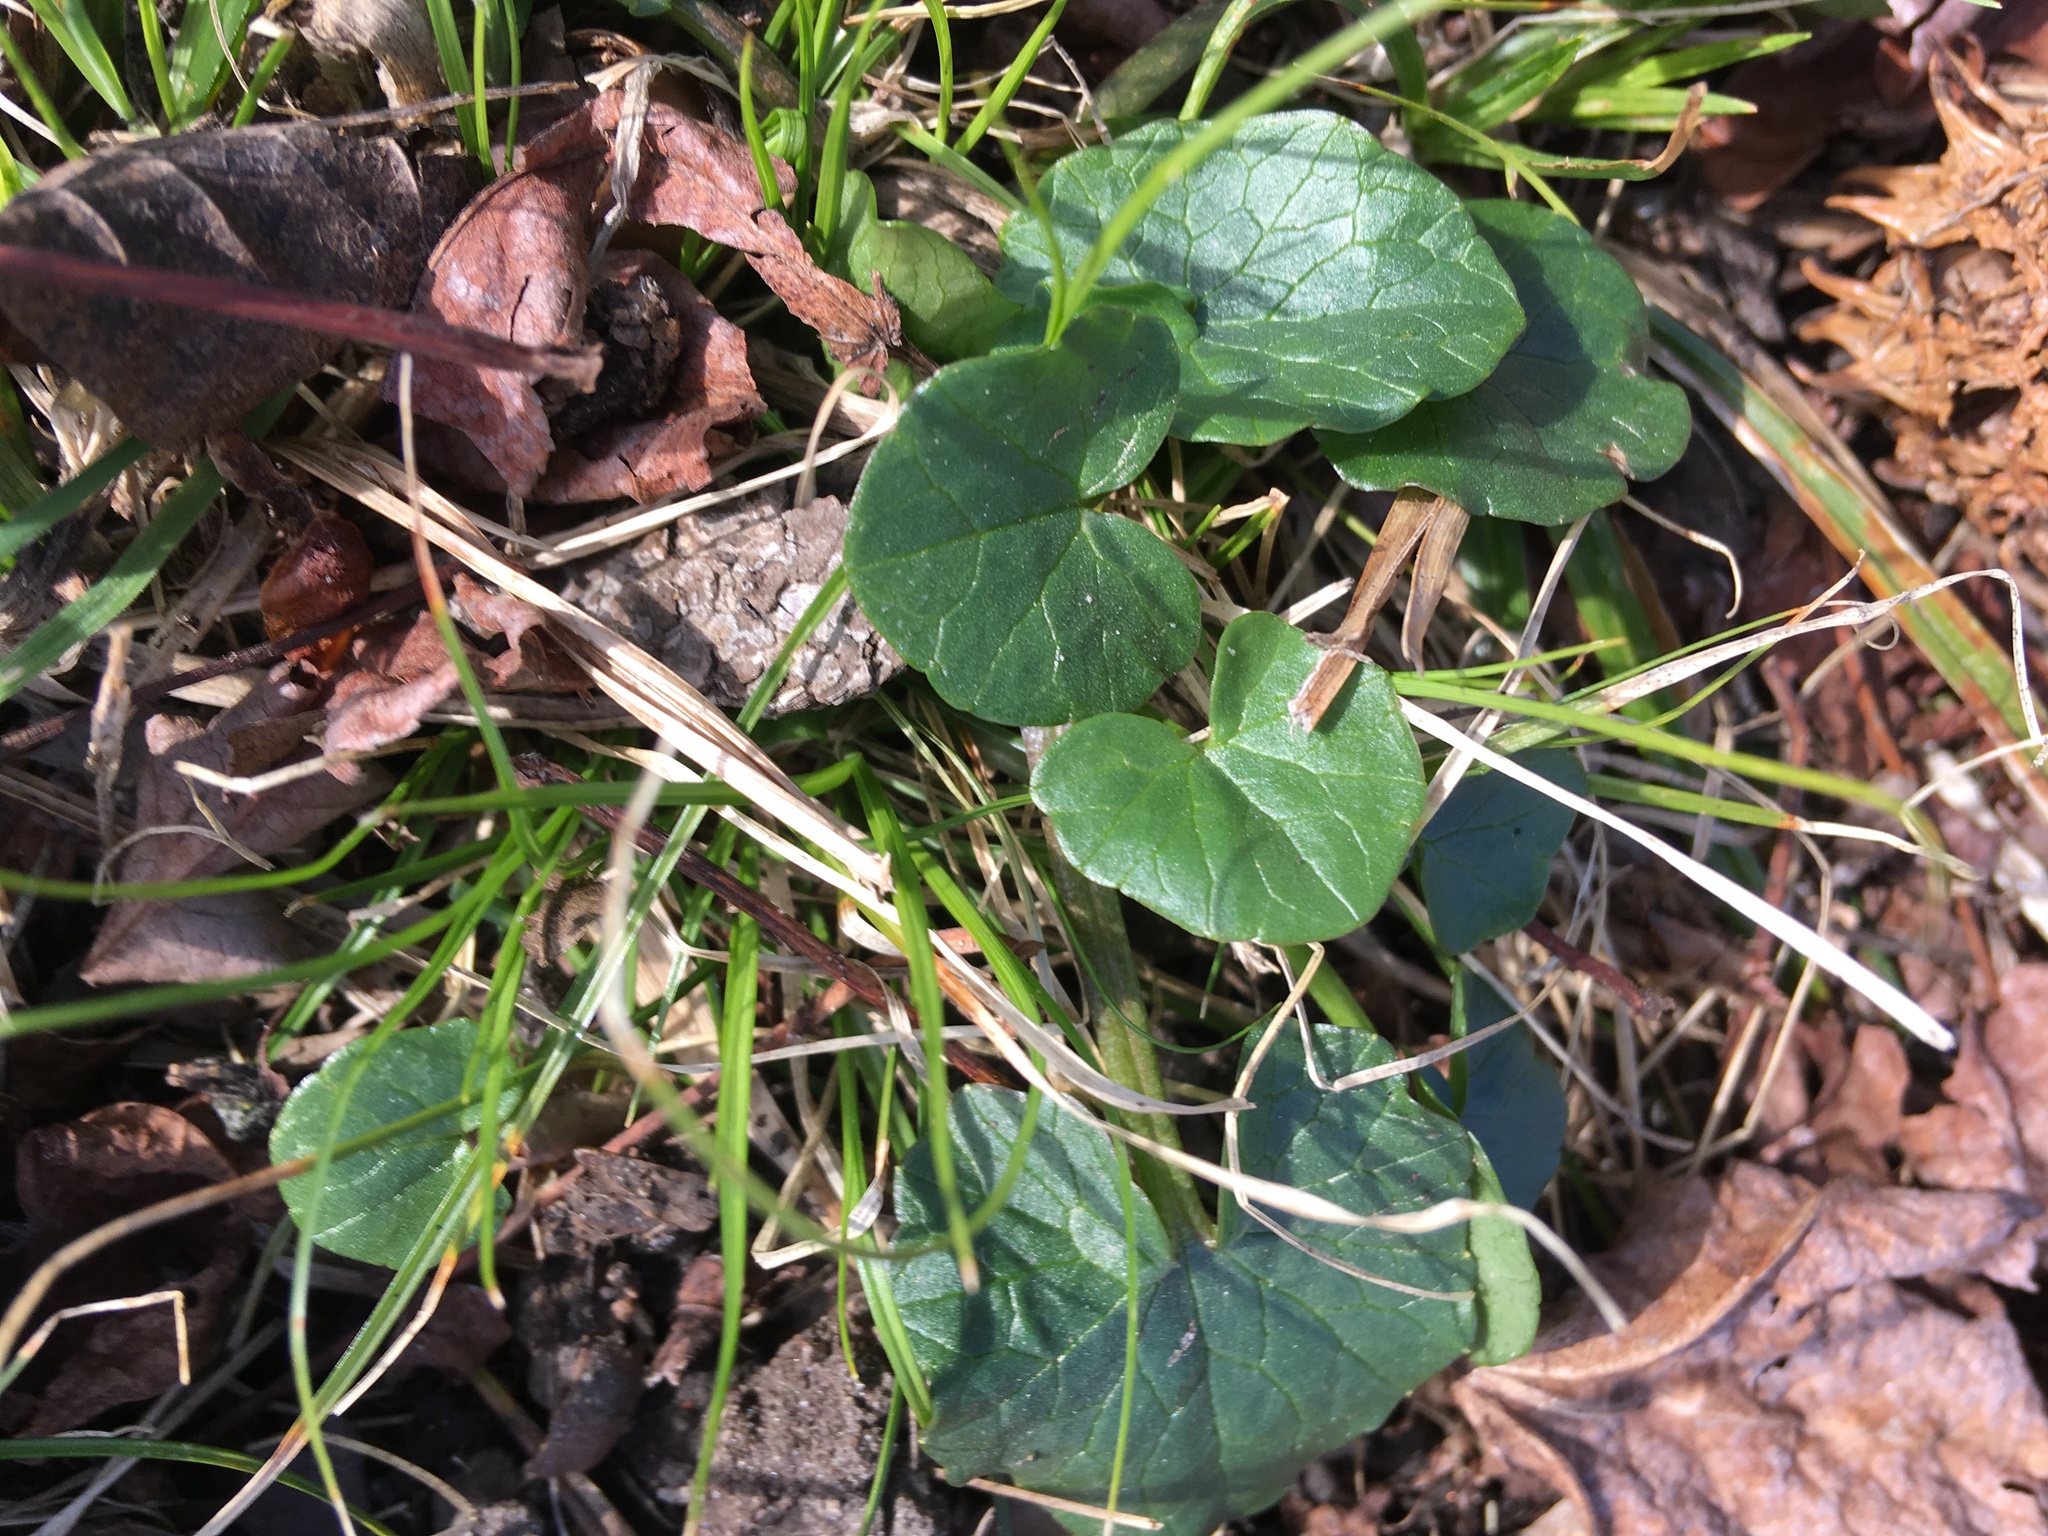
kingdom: Plantae
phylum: Tracheophyta
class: Magnoliopsida
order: Ranunculales
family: Ranunculaceae
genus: Ficaria
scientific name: Ficaria verna
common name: Lesser celandine
